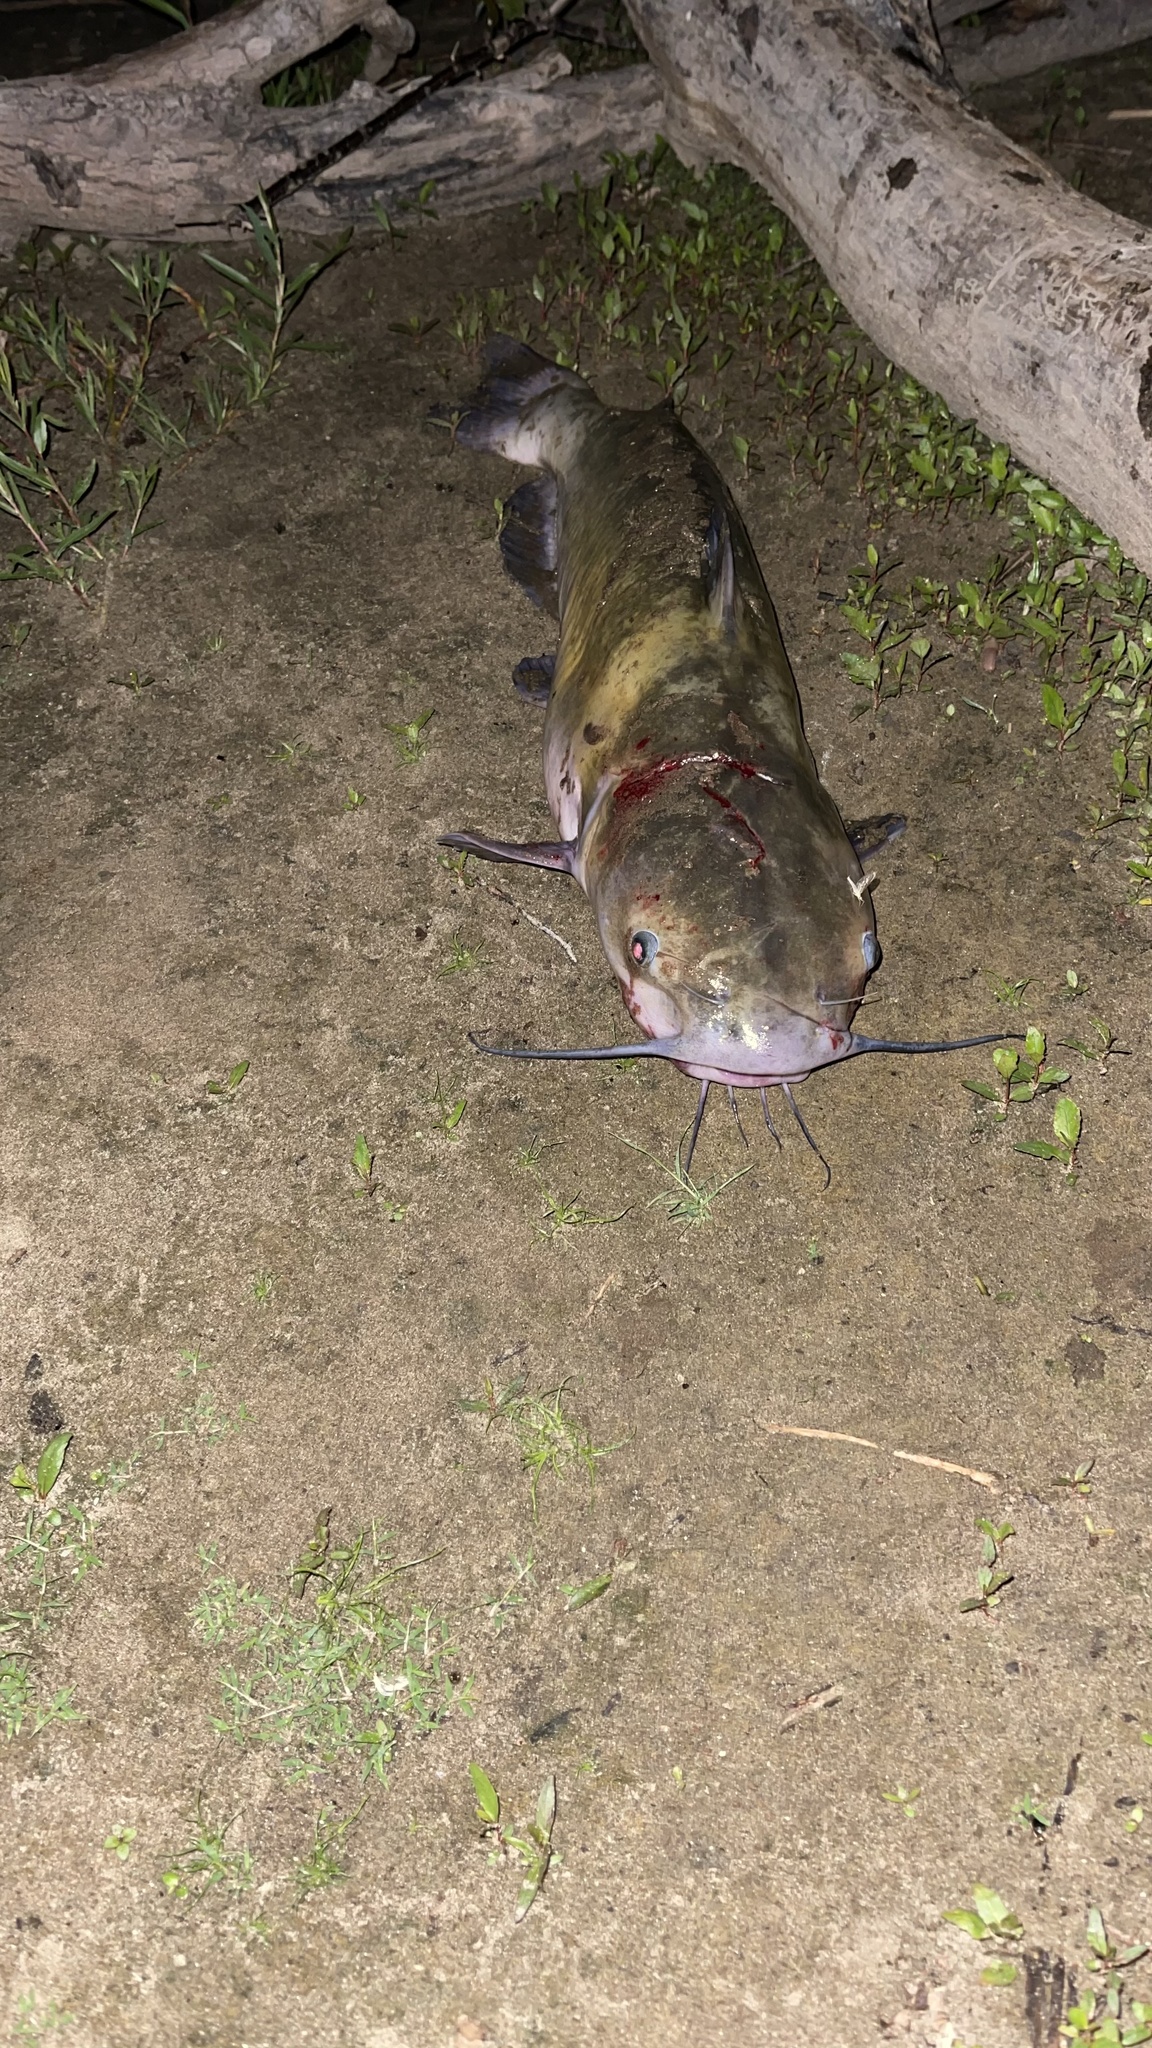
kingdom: Animalia
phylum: Chordata
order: Siluriformes
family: Ictaluridae
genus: Ictalurus
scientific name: Ictalurus punctatus
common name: Channel catfish
